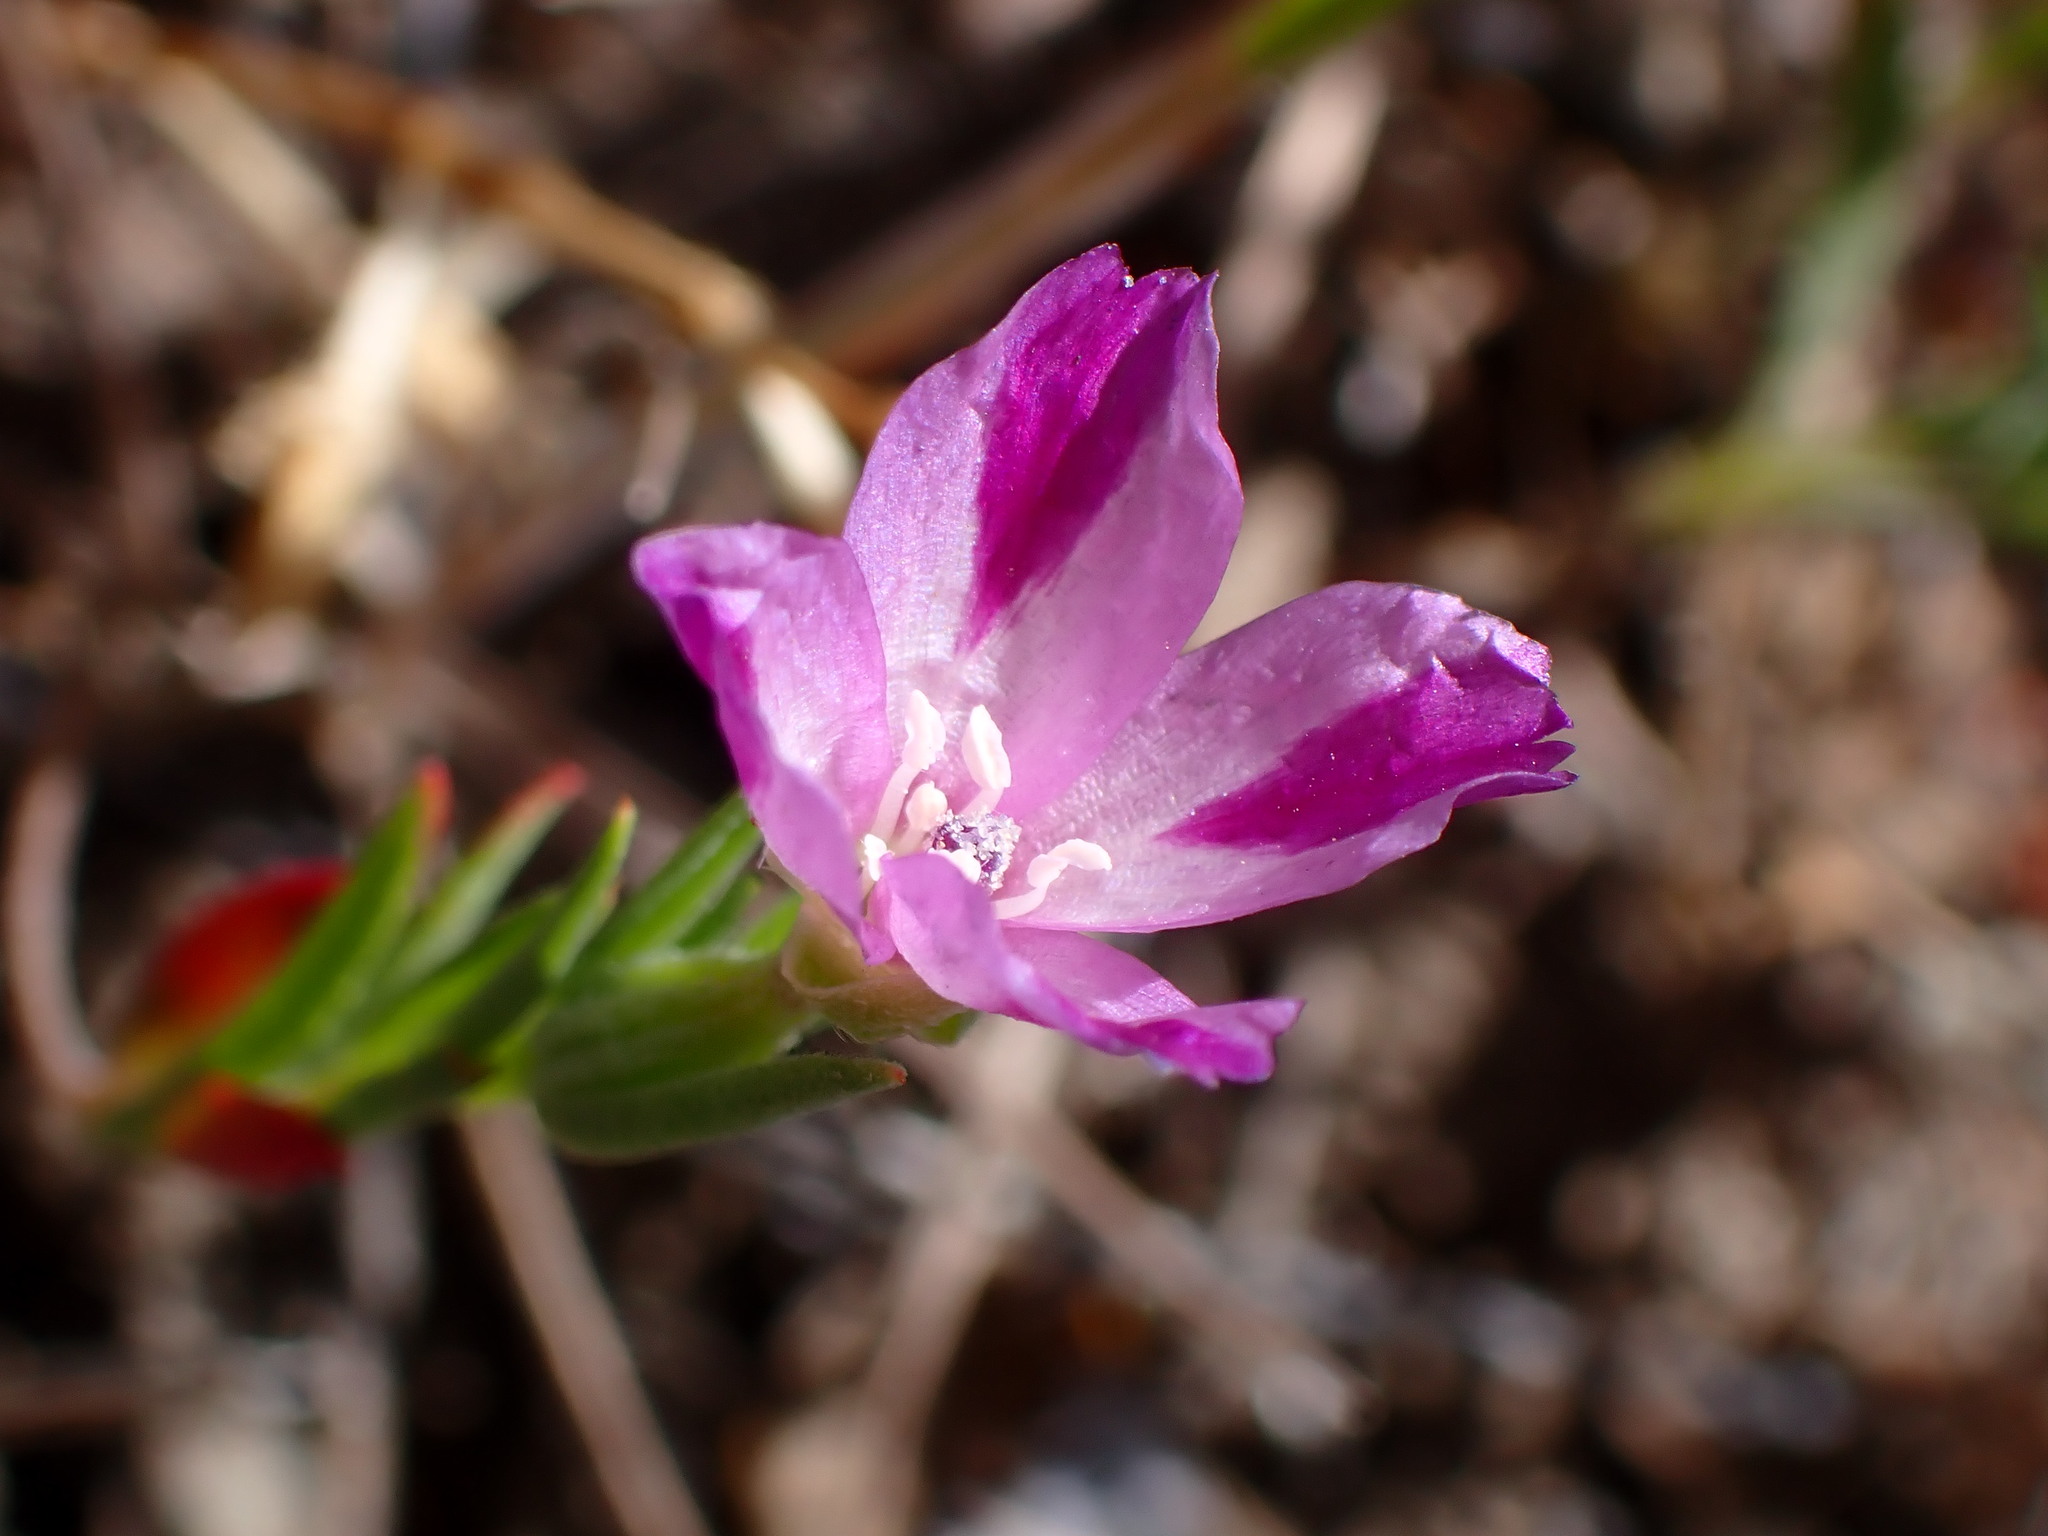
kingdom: Plantae
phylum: Tracheophyta
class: Magnoliopsida
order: Myrtales
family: Onagraceae
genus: Clarkia
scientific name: Clarkia purpurea
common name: Purple clarkia
